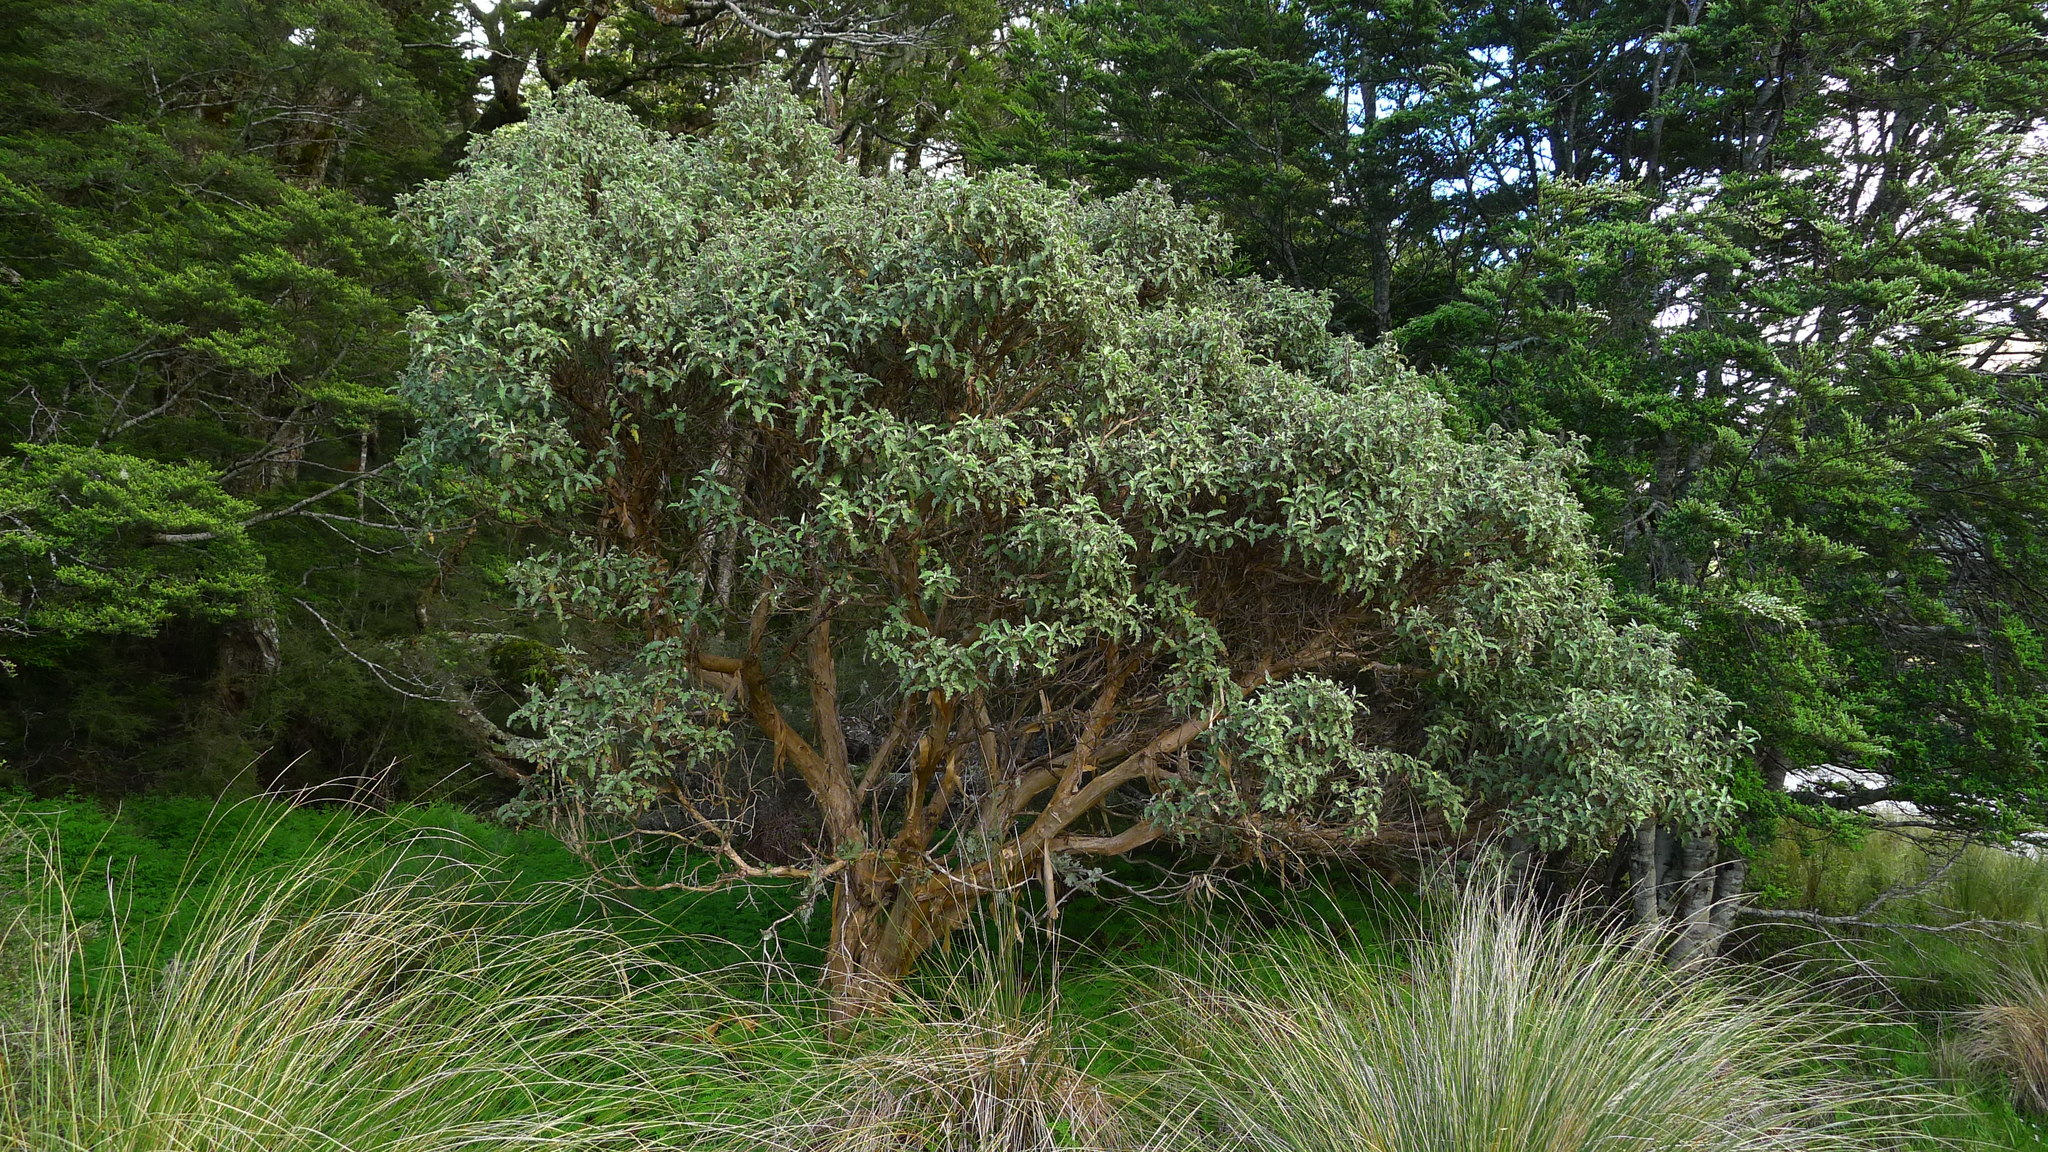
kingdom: Plantae
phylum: Tracheophyta
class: Magnoliopsida
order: Asterales
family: Asteraceae
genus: Olearia
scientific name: Olearia ilicifolia
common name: Maori-holly
